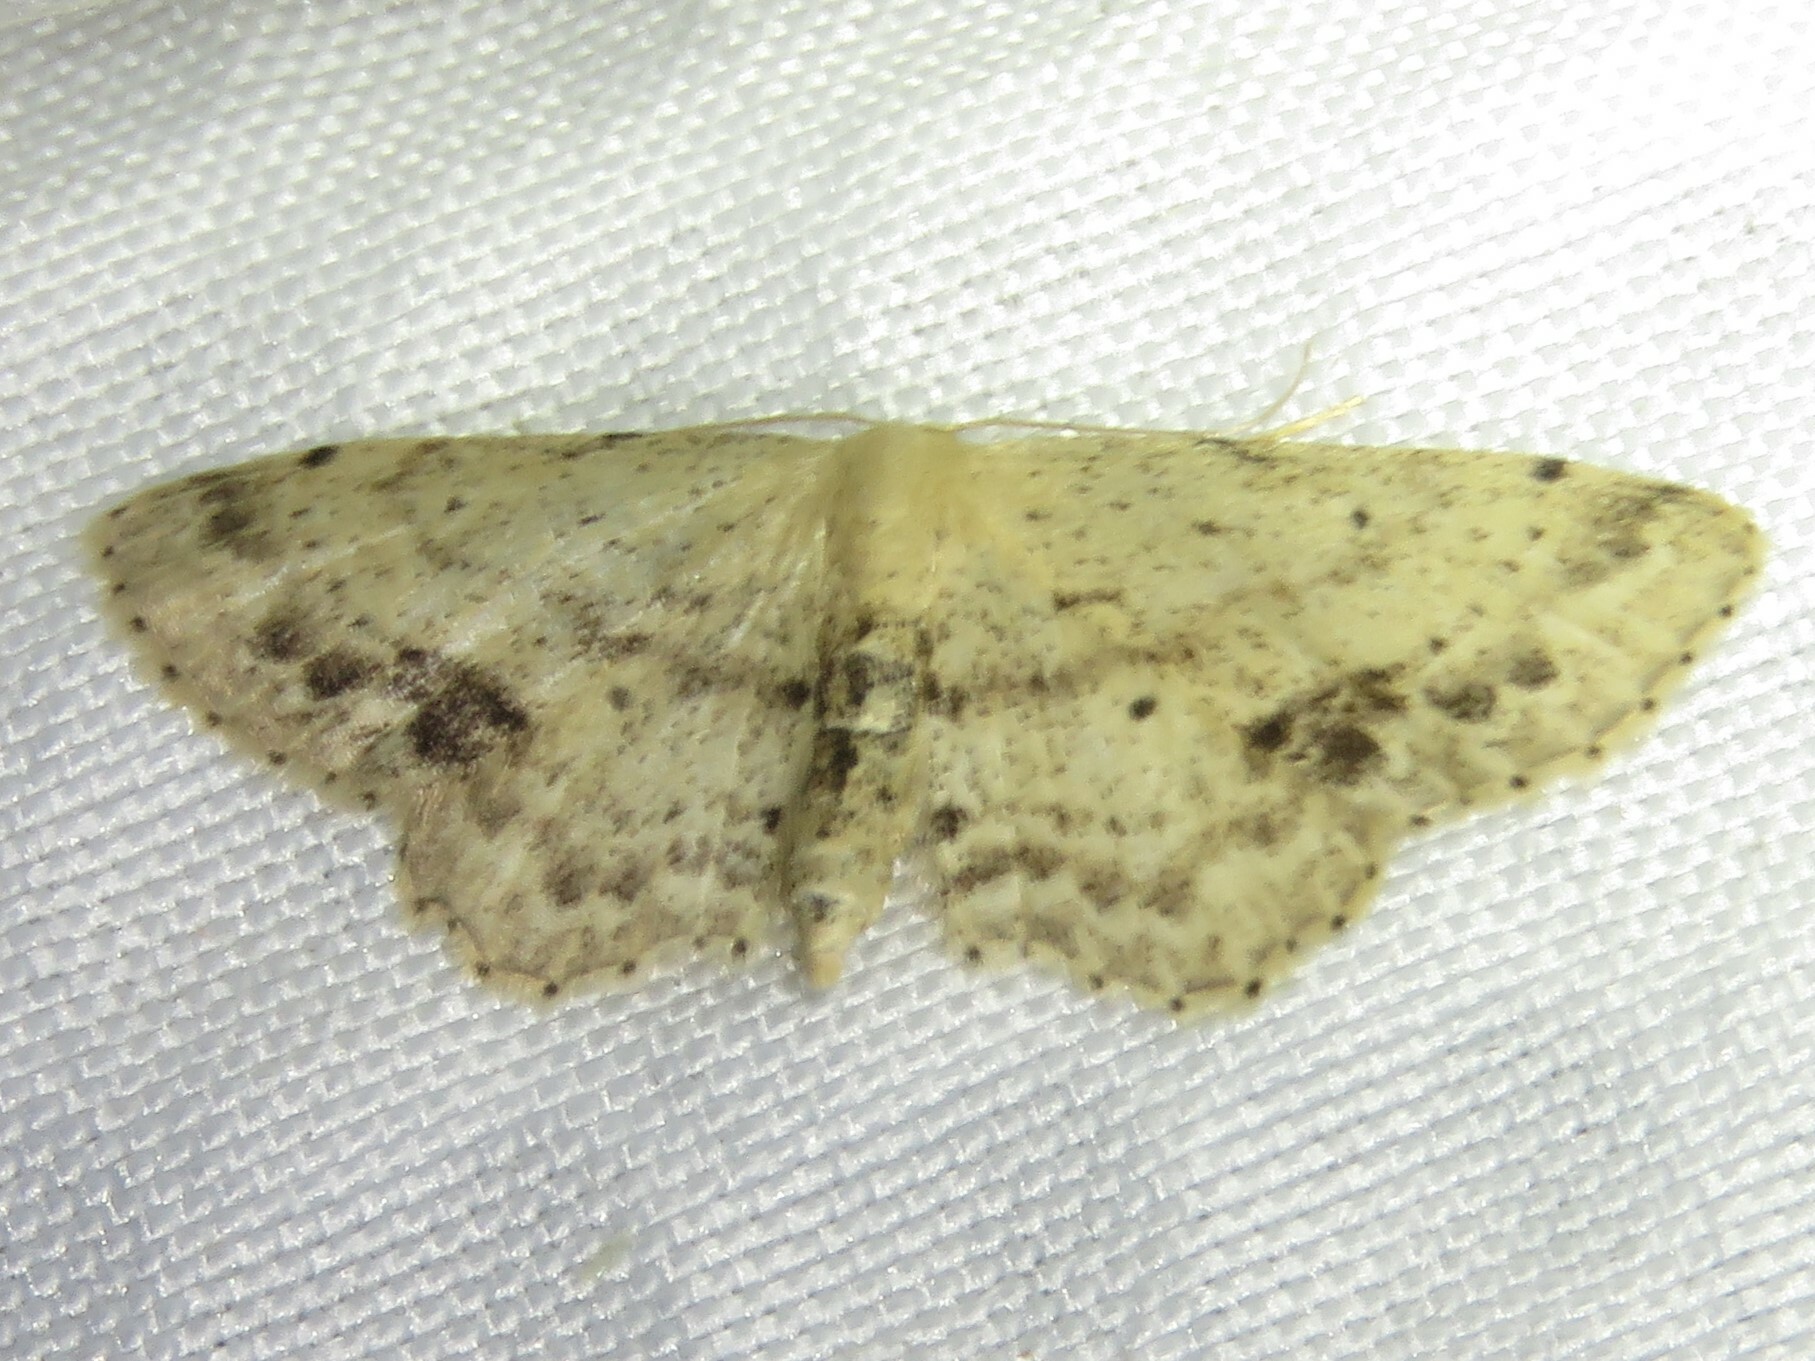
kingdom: Animalia
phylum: Arthropoda
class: Insecta
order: Lepidoptera
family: Geometridae
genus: Idaea
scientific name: Idaea dimidiata
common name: Single-dotted wave
